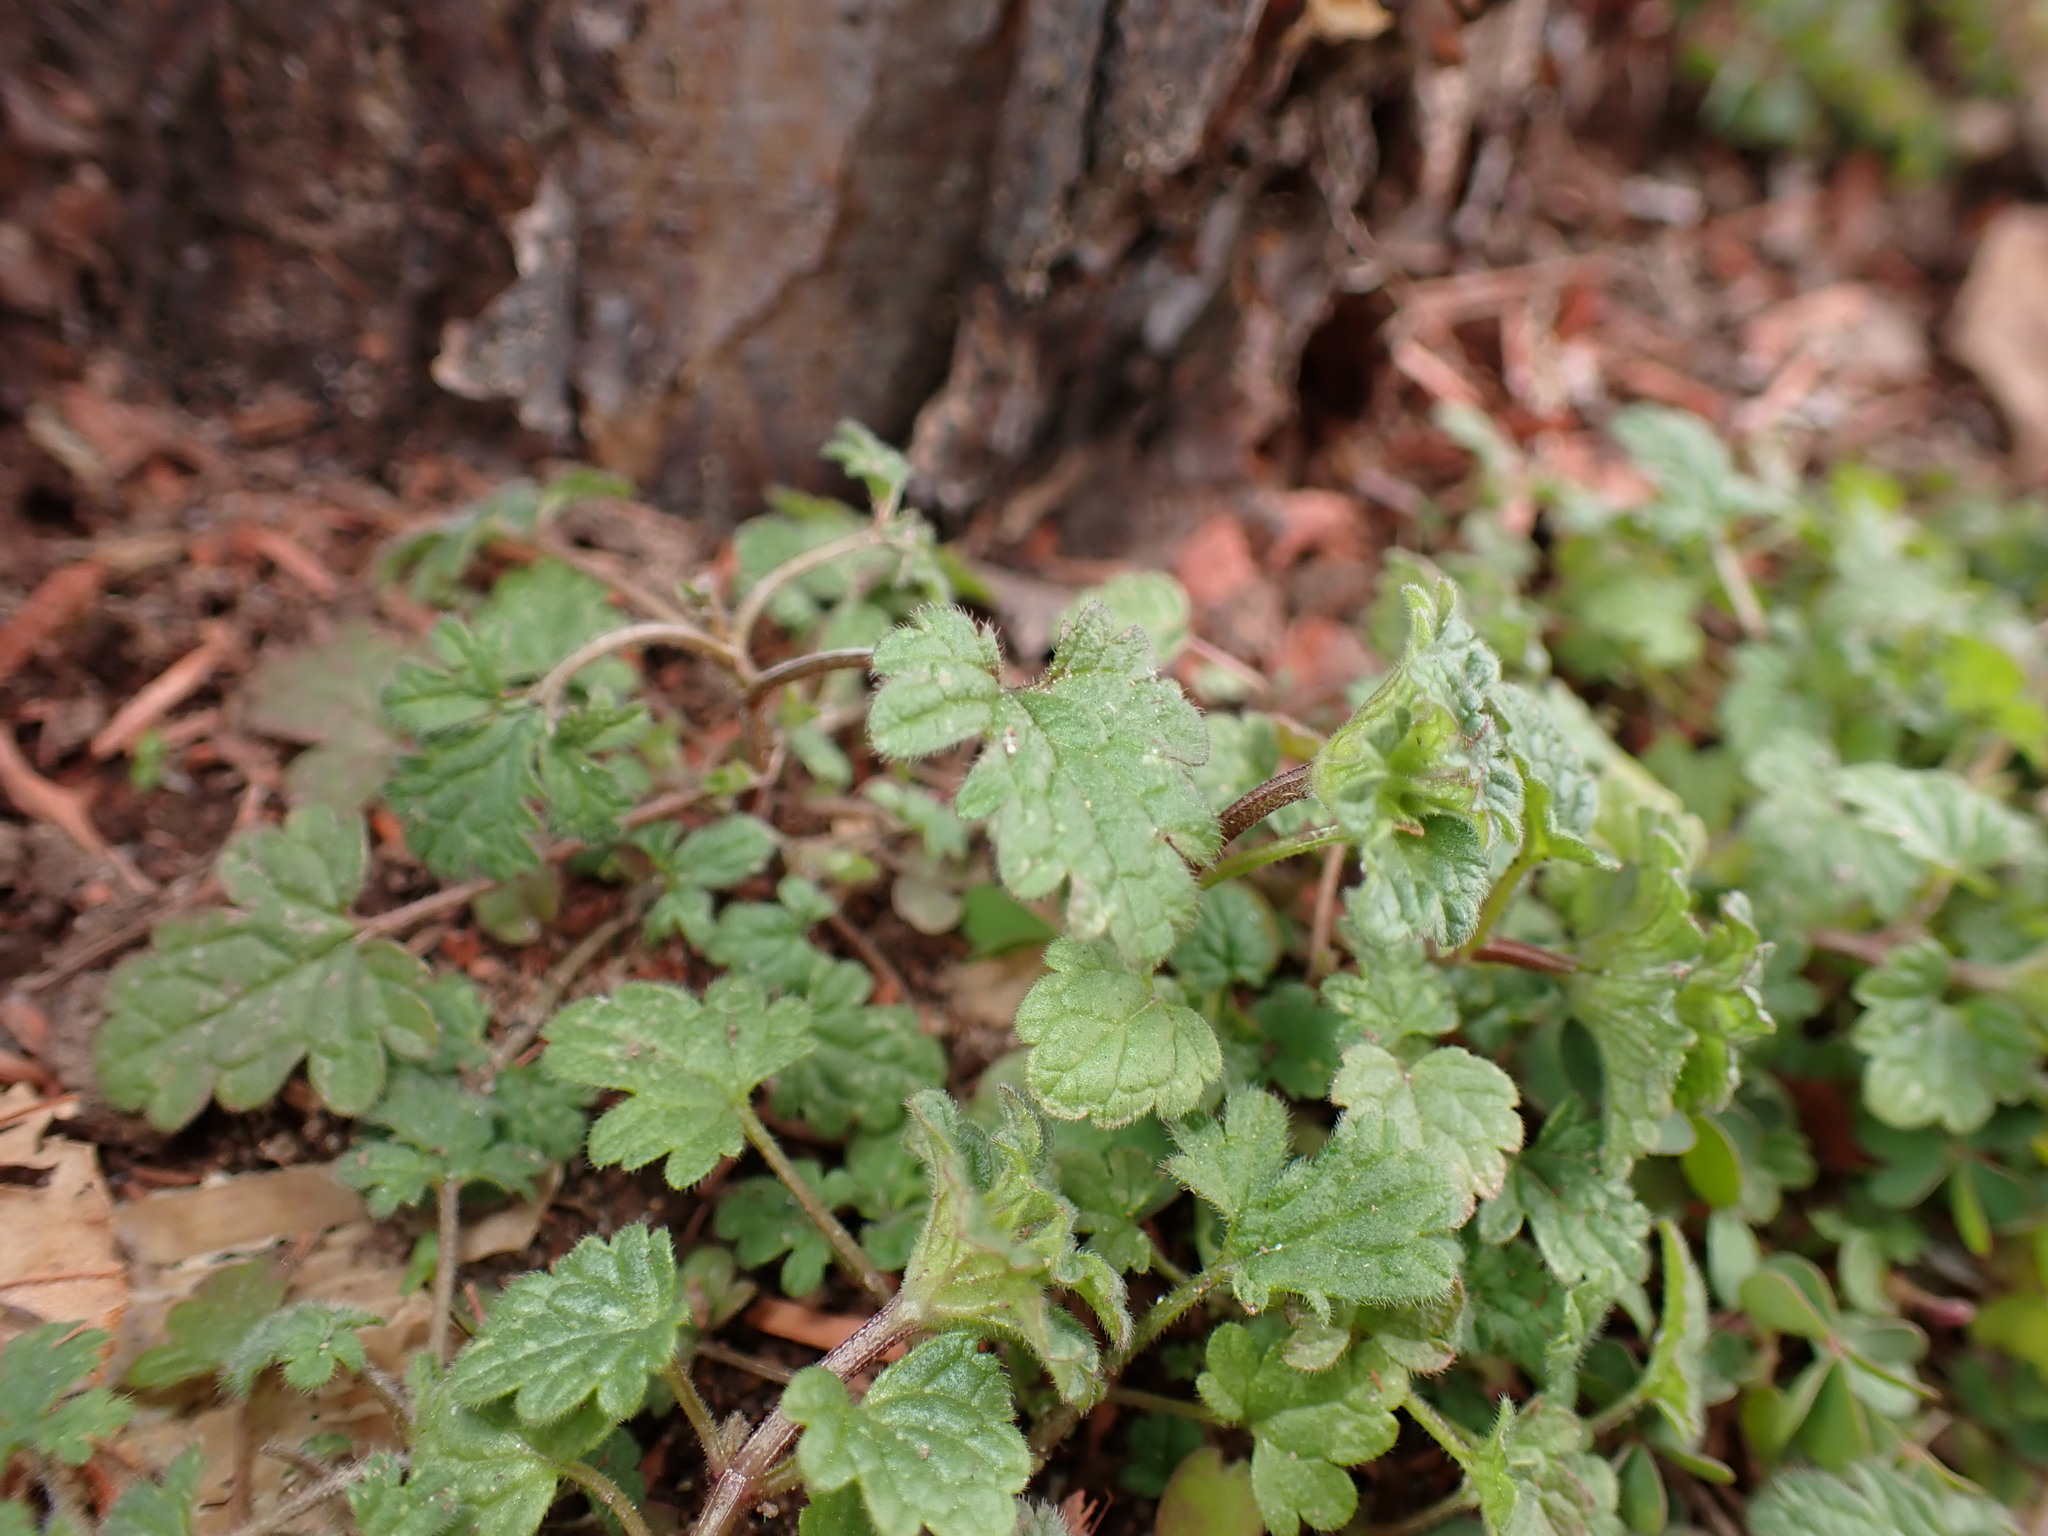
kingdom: Plantae
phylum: Tracheophyta
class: Magnoliopsida
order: Lamiales
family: Lamiaceae
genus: Lamium
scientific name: Lamium amplexicaule
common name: Henbit dead-nettle
